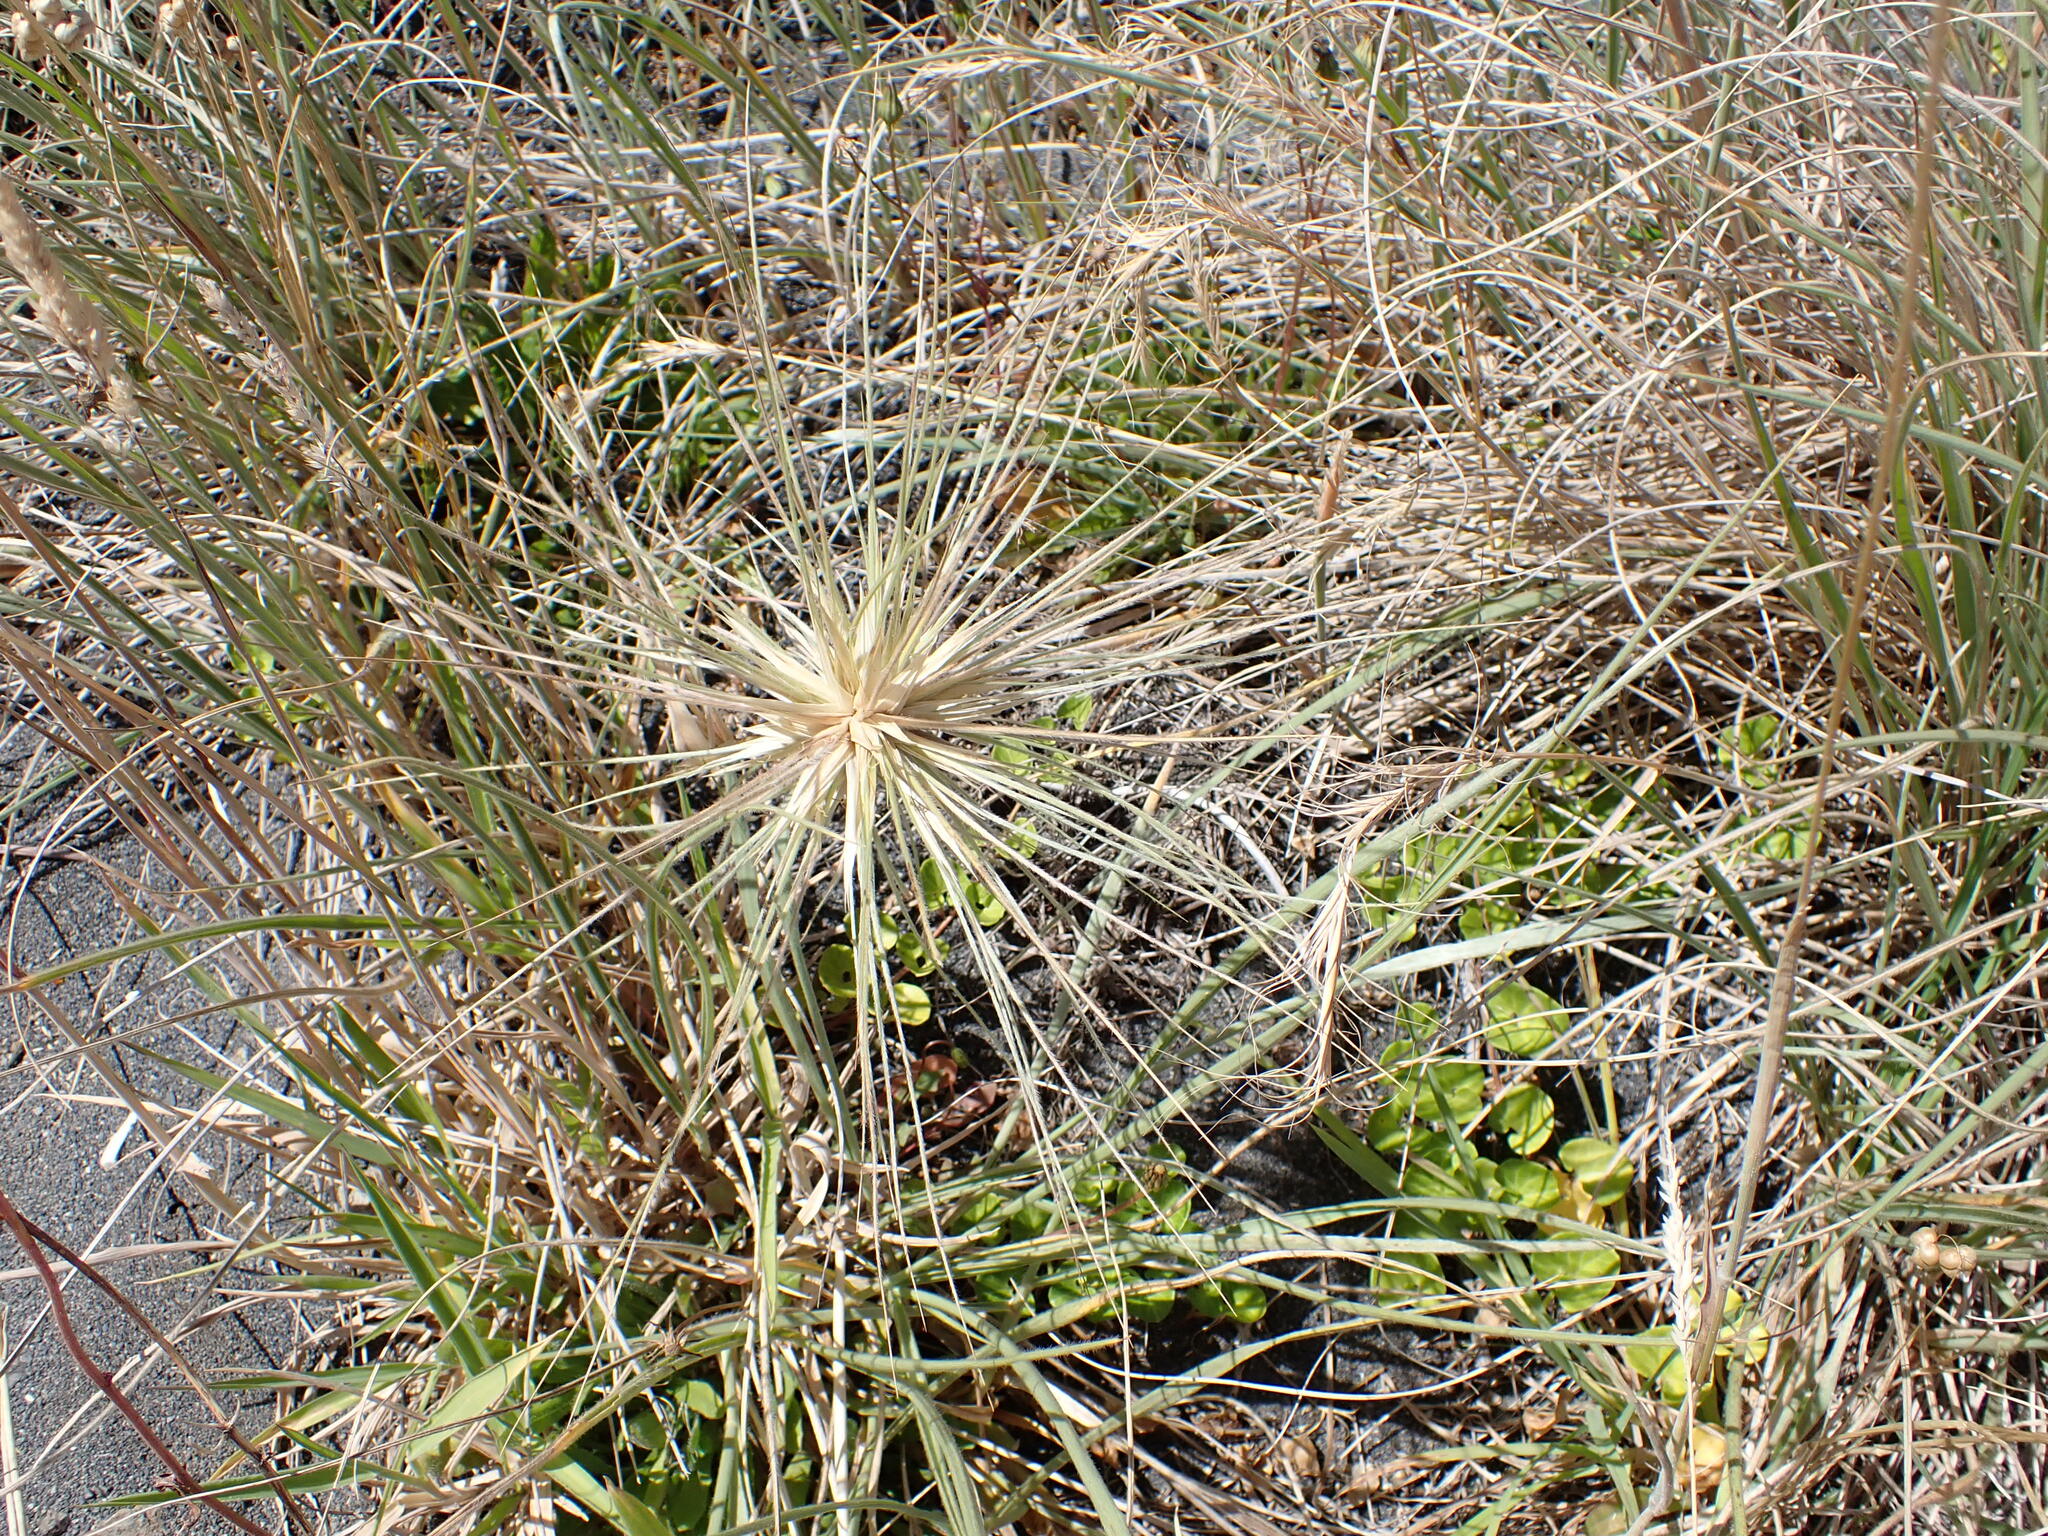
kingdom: Plantae
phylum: Tracheophyta
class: Liliopsida
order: Poales
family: Poaceae
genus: Spinifex
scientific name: Spinifex sericeus
